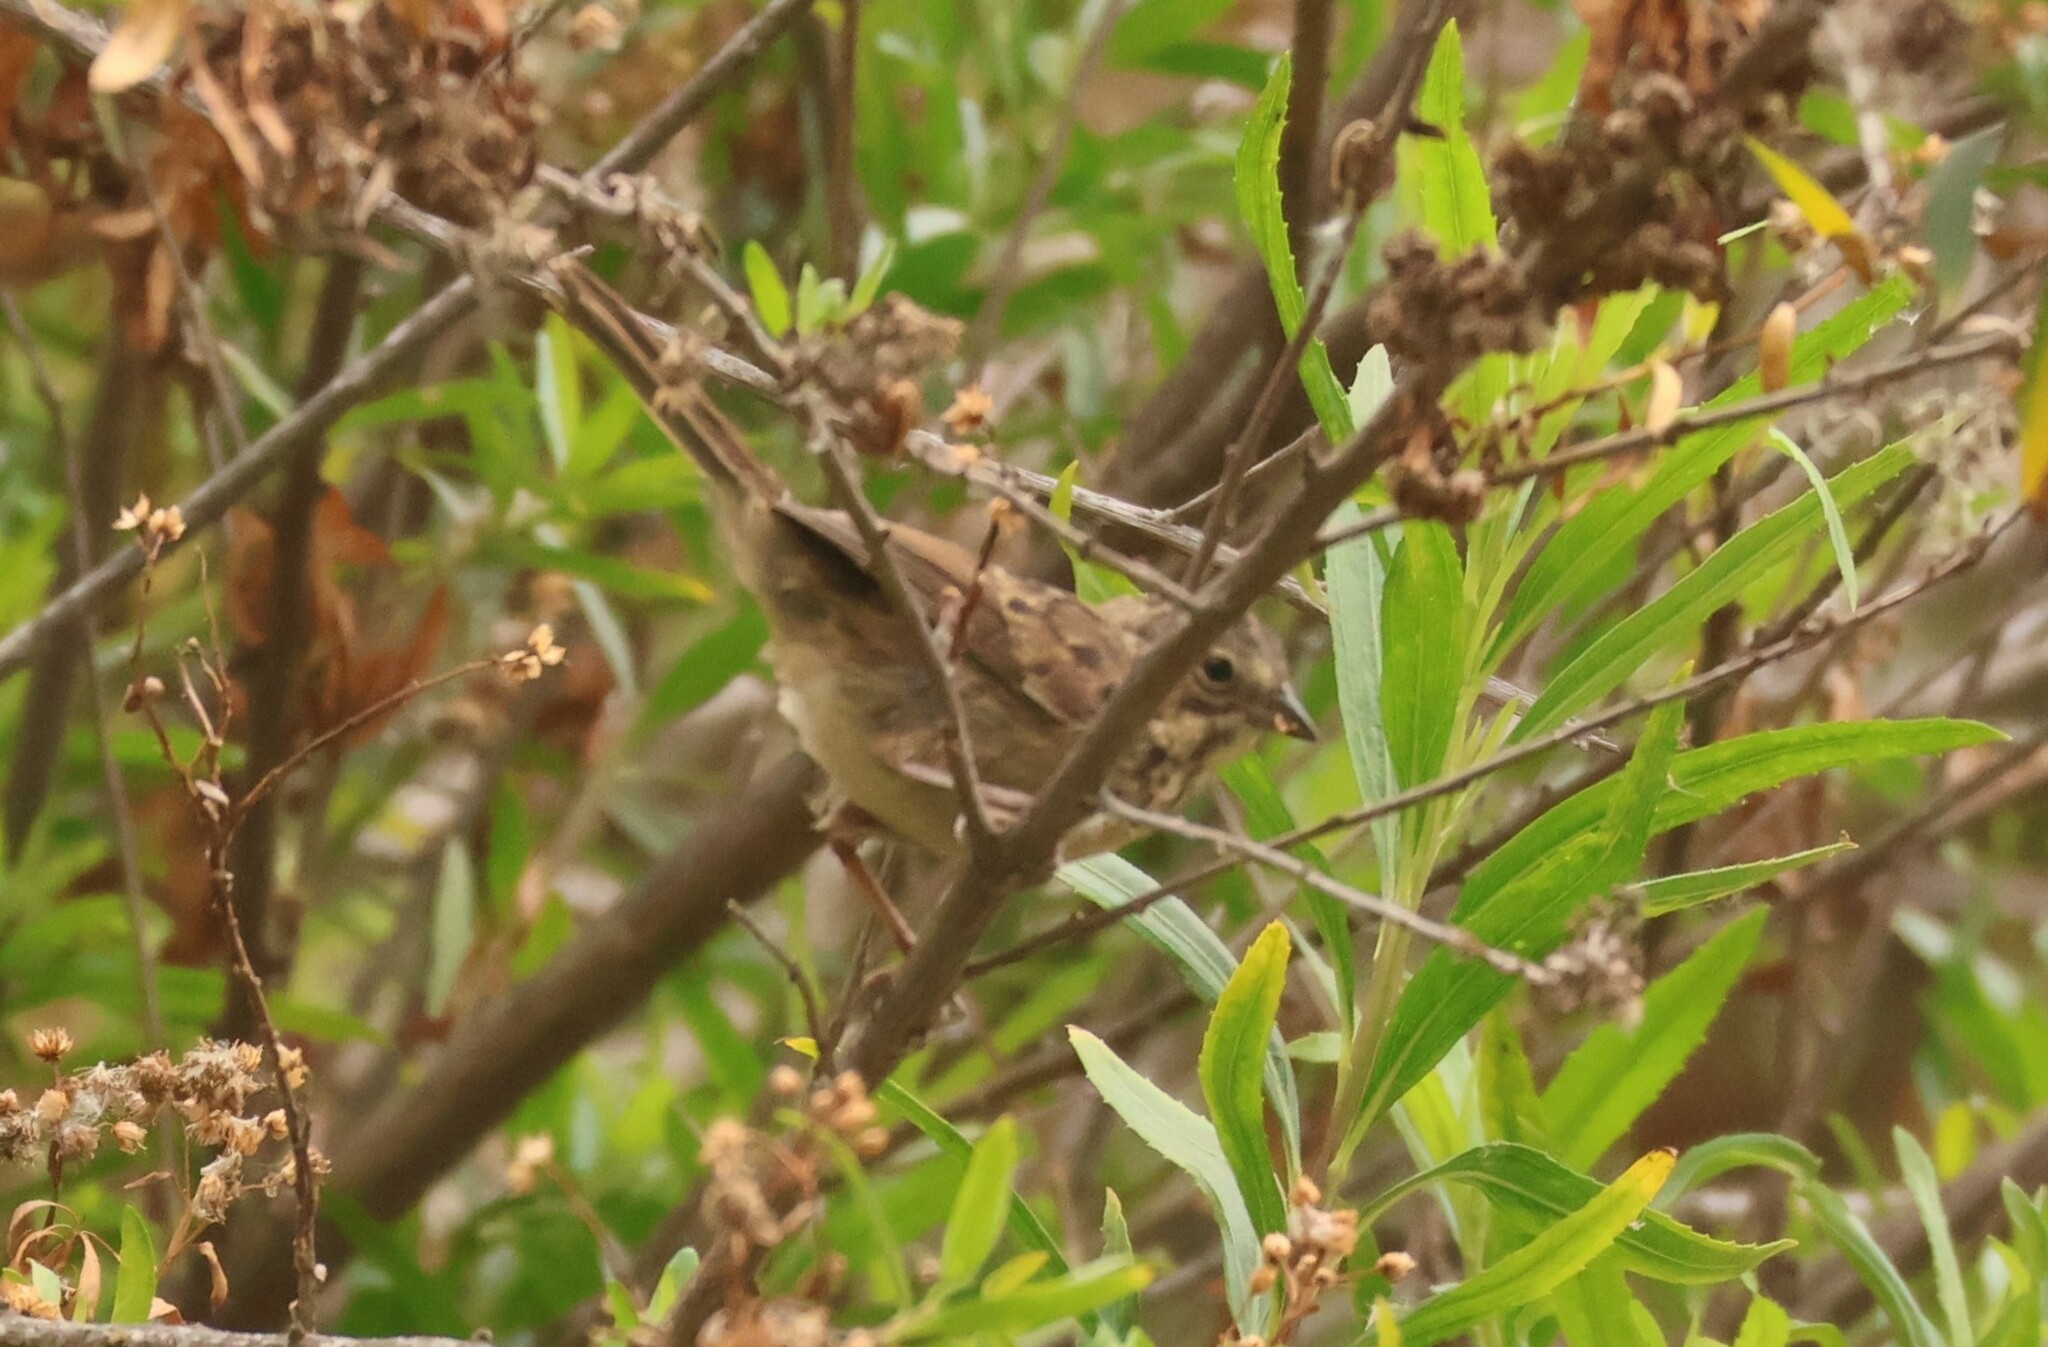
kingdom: Animalia
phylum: Chordata
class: Aves
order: Passeriformes
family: Passerellidae
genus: Melospiza
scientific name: Melospiza melodia
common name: Song sparrow
